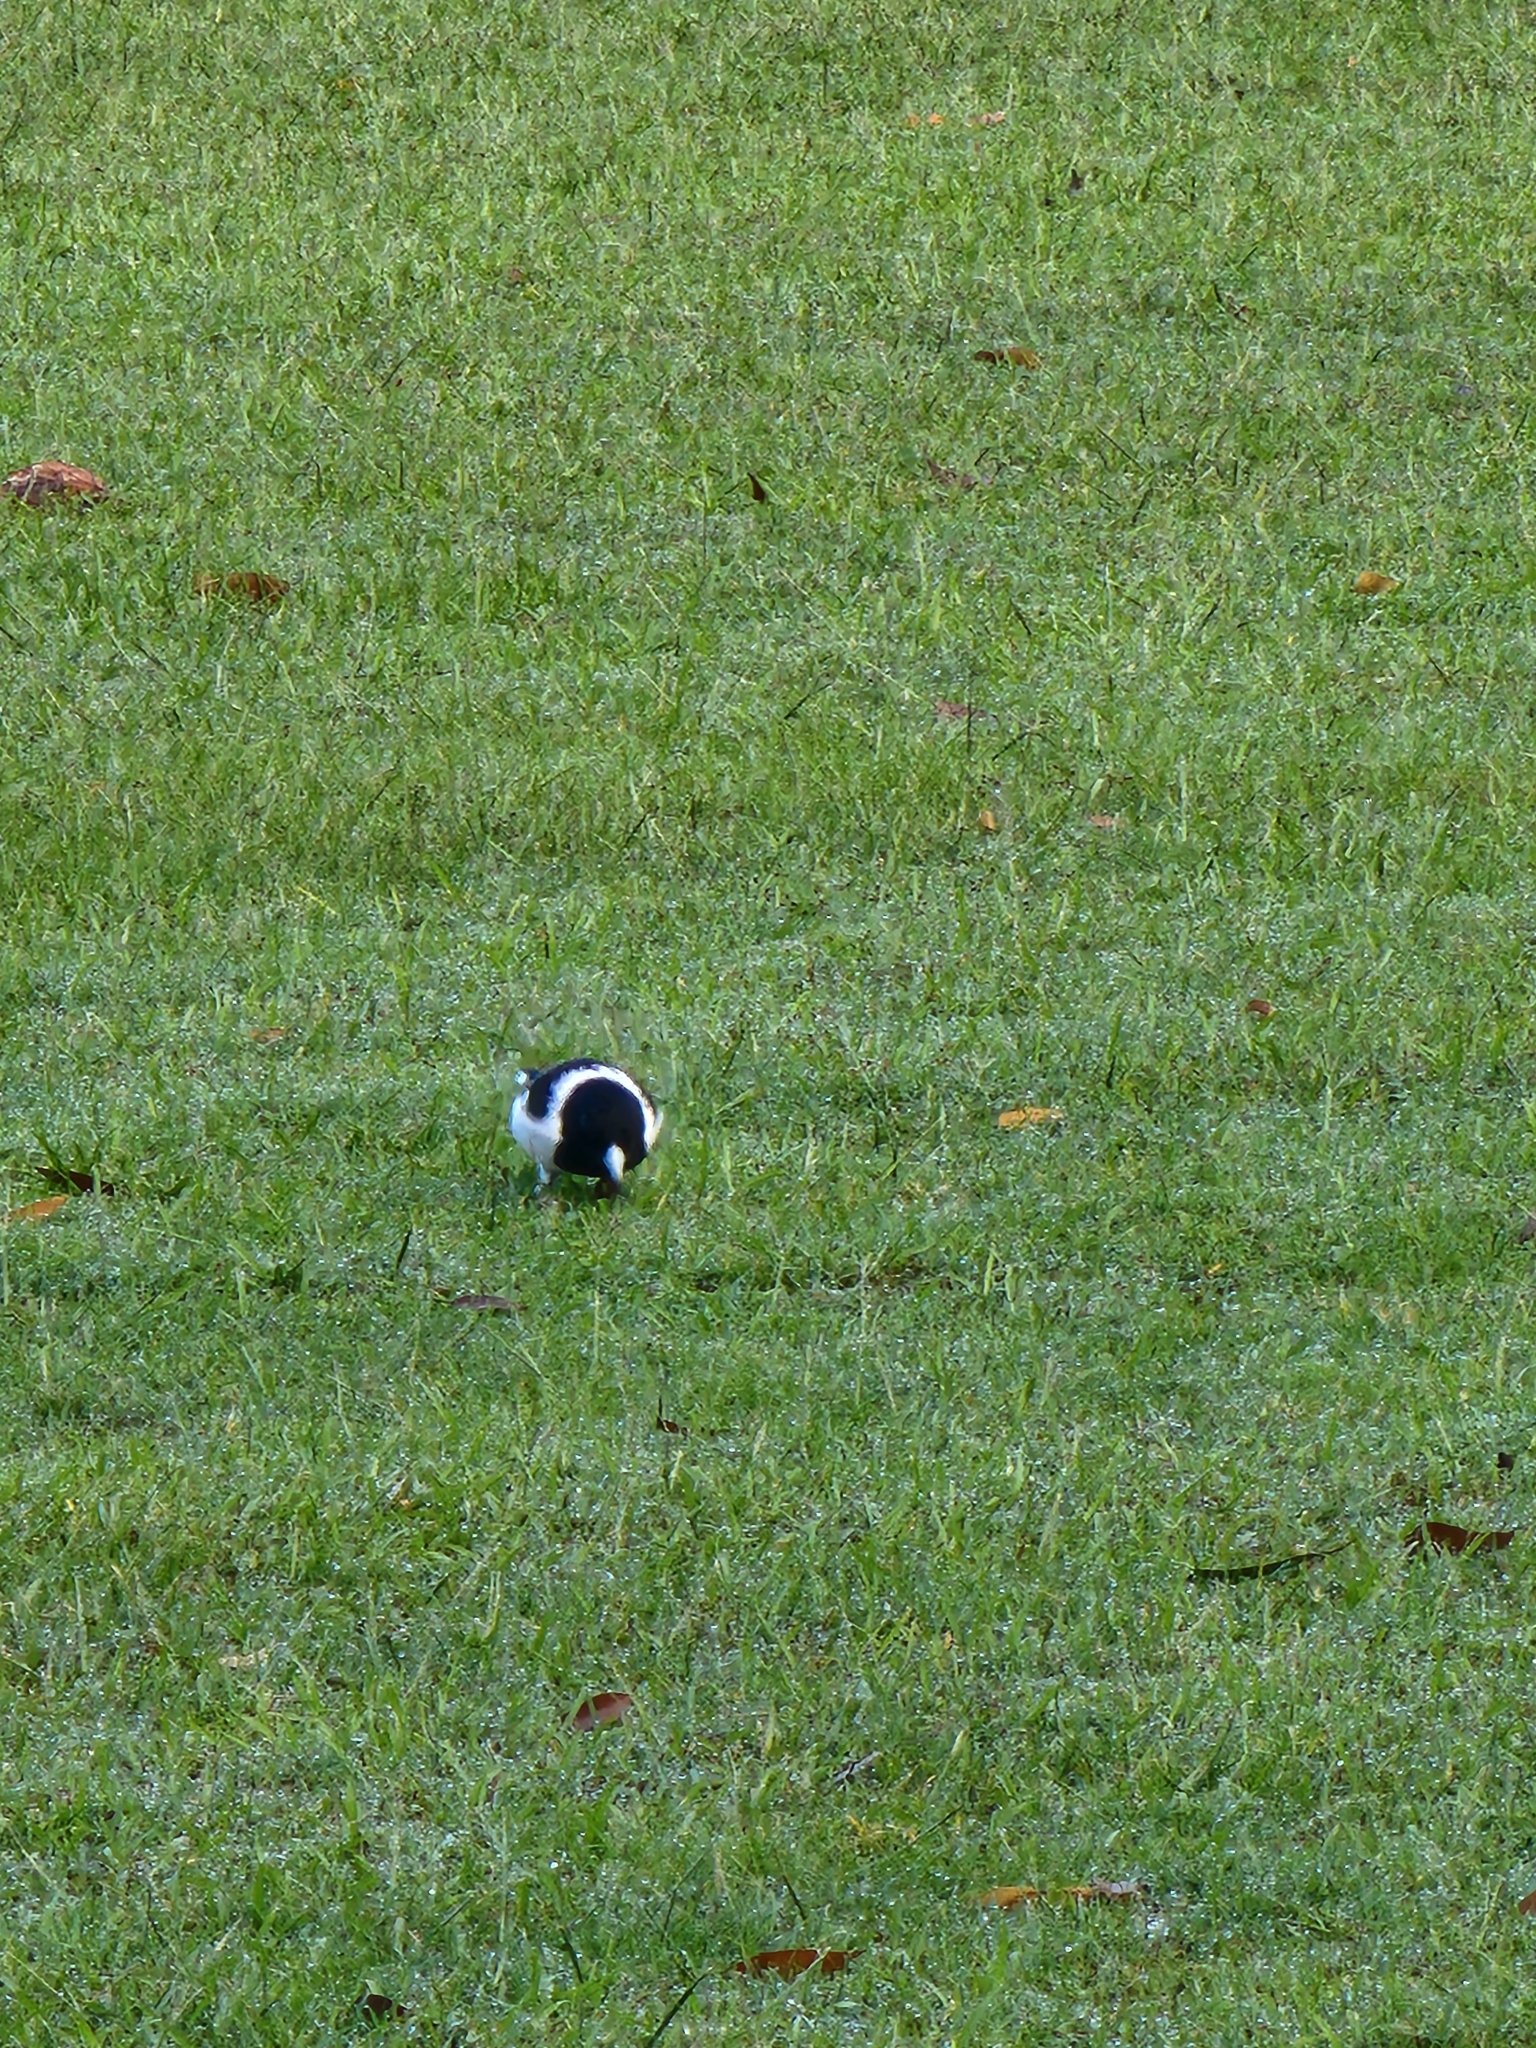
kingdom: Animalia
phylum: Chordata
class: Aves
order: Passeriformes
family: Cracticidae
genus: Cracticus
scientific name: Cracticus nigrogularis
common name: Pied butcherbird
